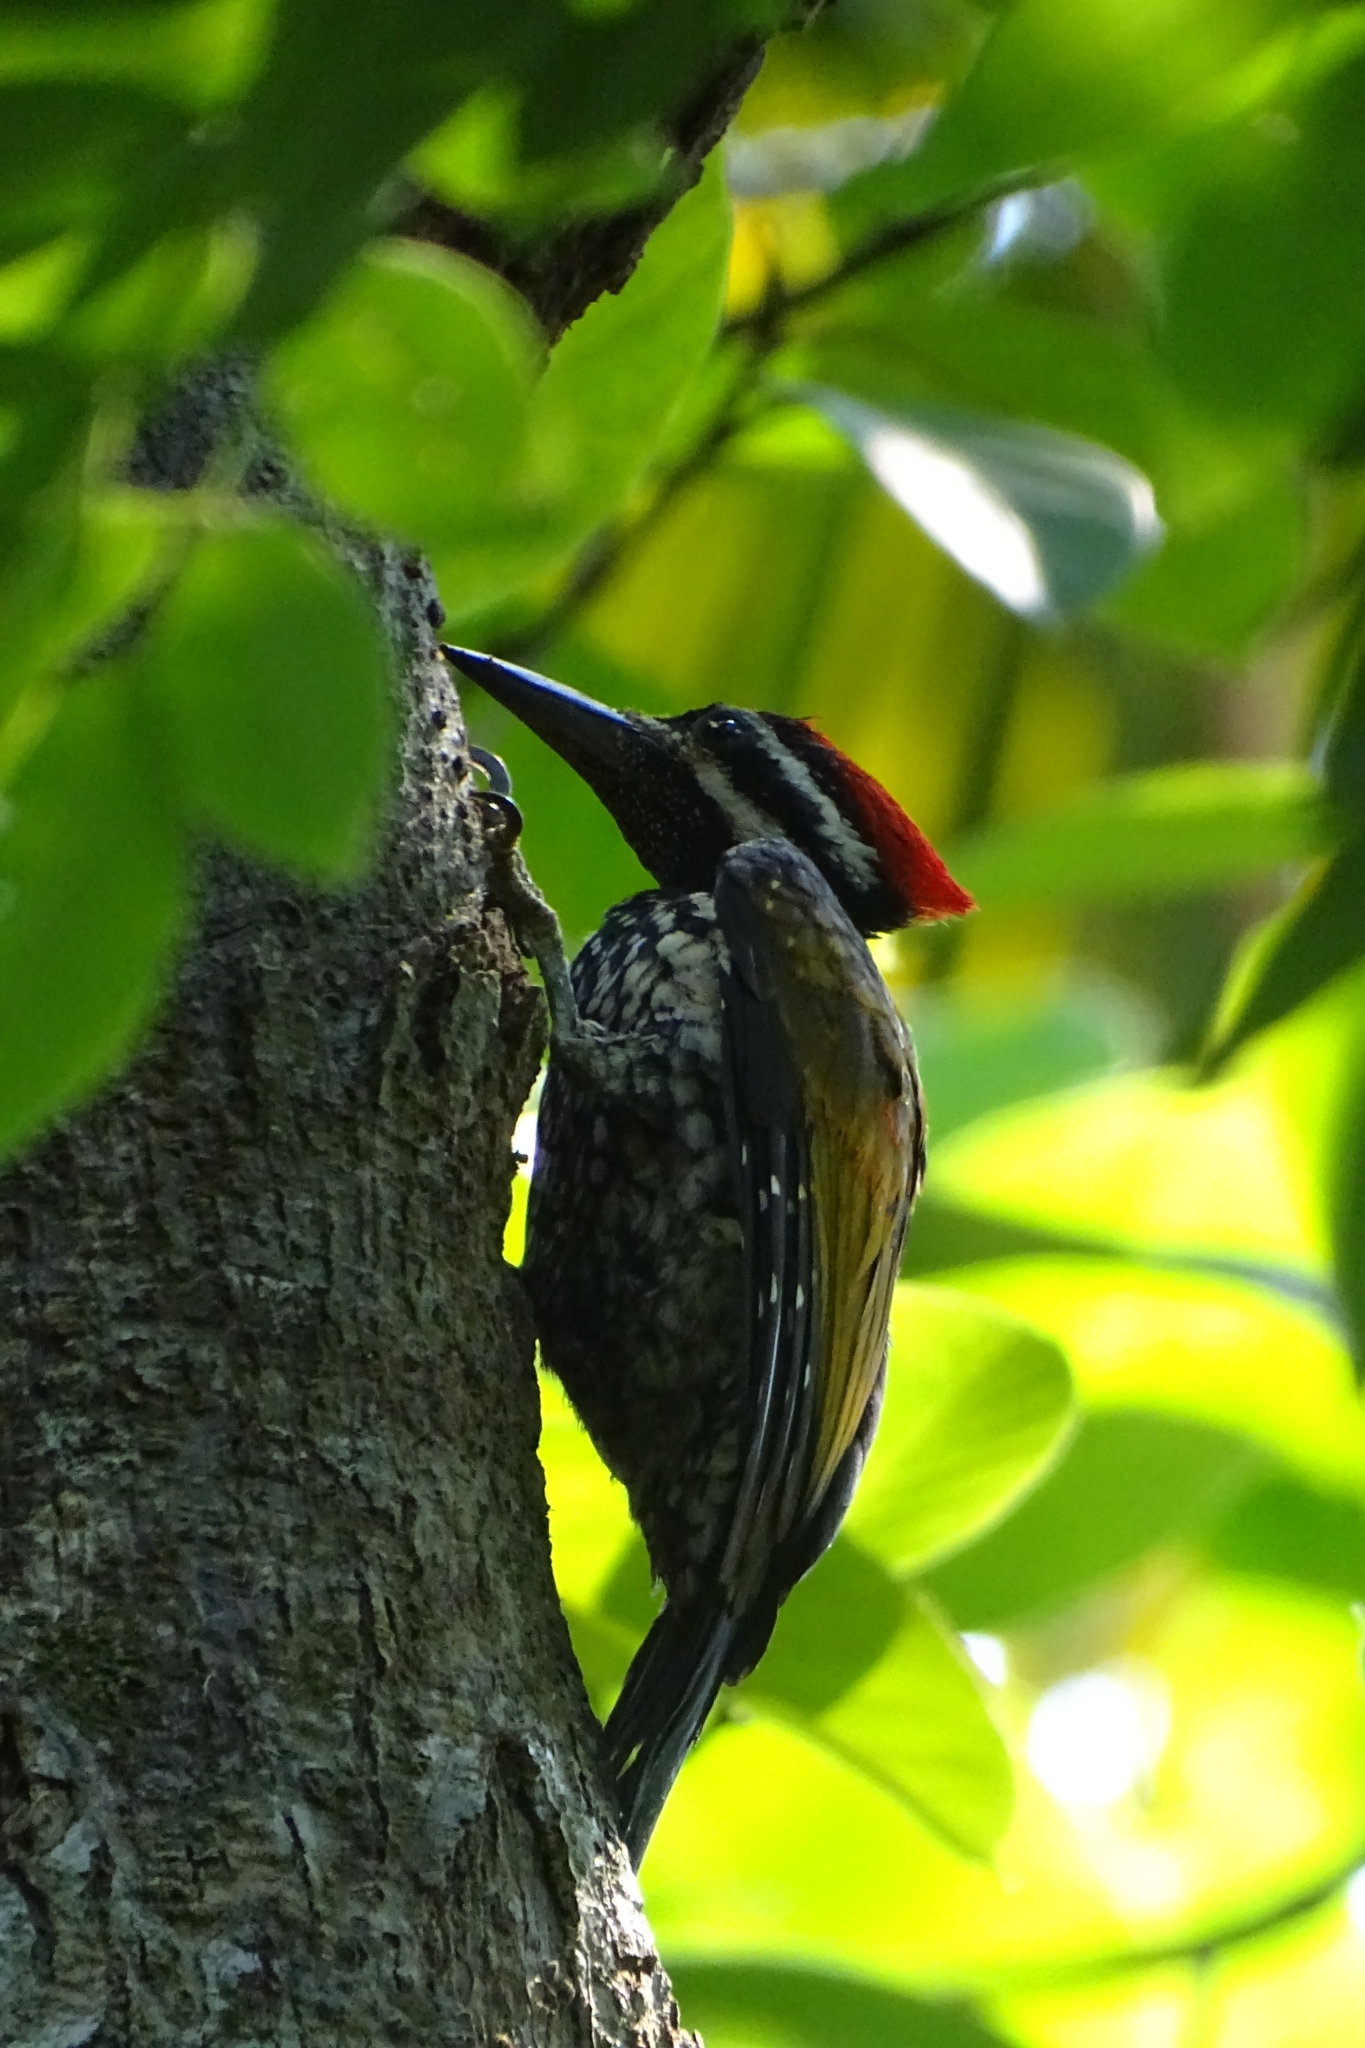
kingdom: Animalia
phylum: Chordata
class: Aves
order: Piciformes
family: Picidae
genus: Dinopium
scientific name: Dinopium benghalense
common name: Black-rumped flameback
